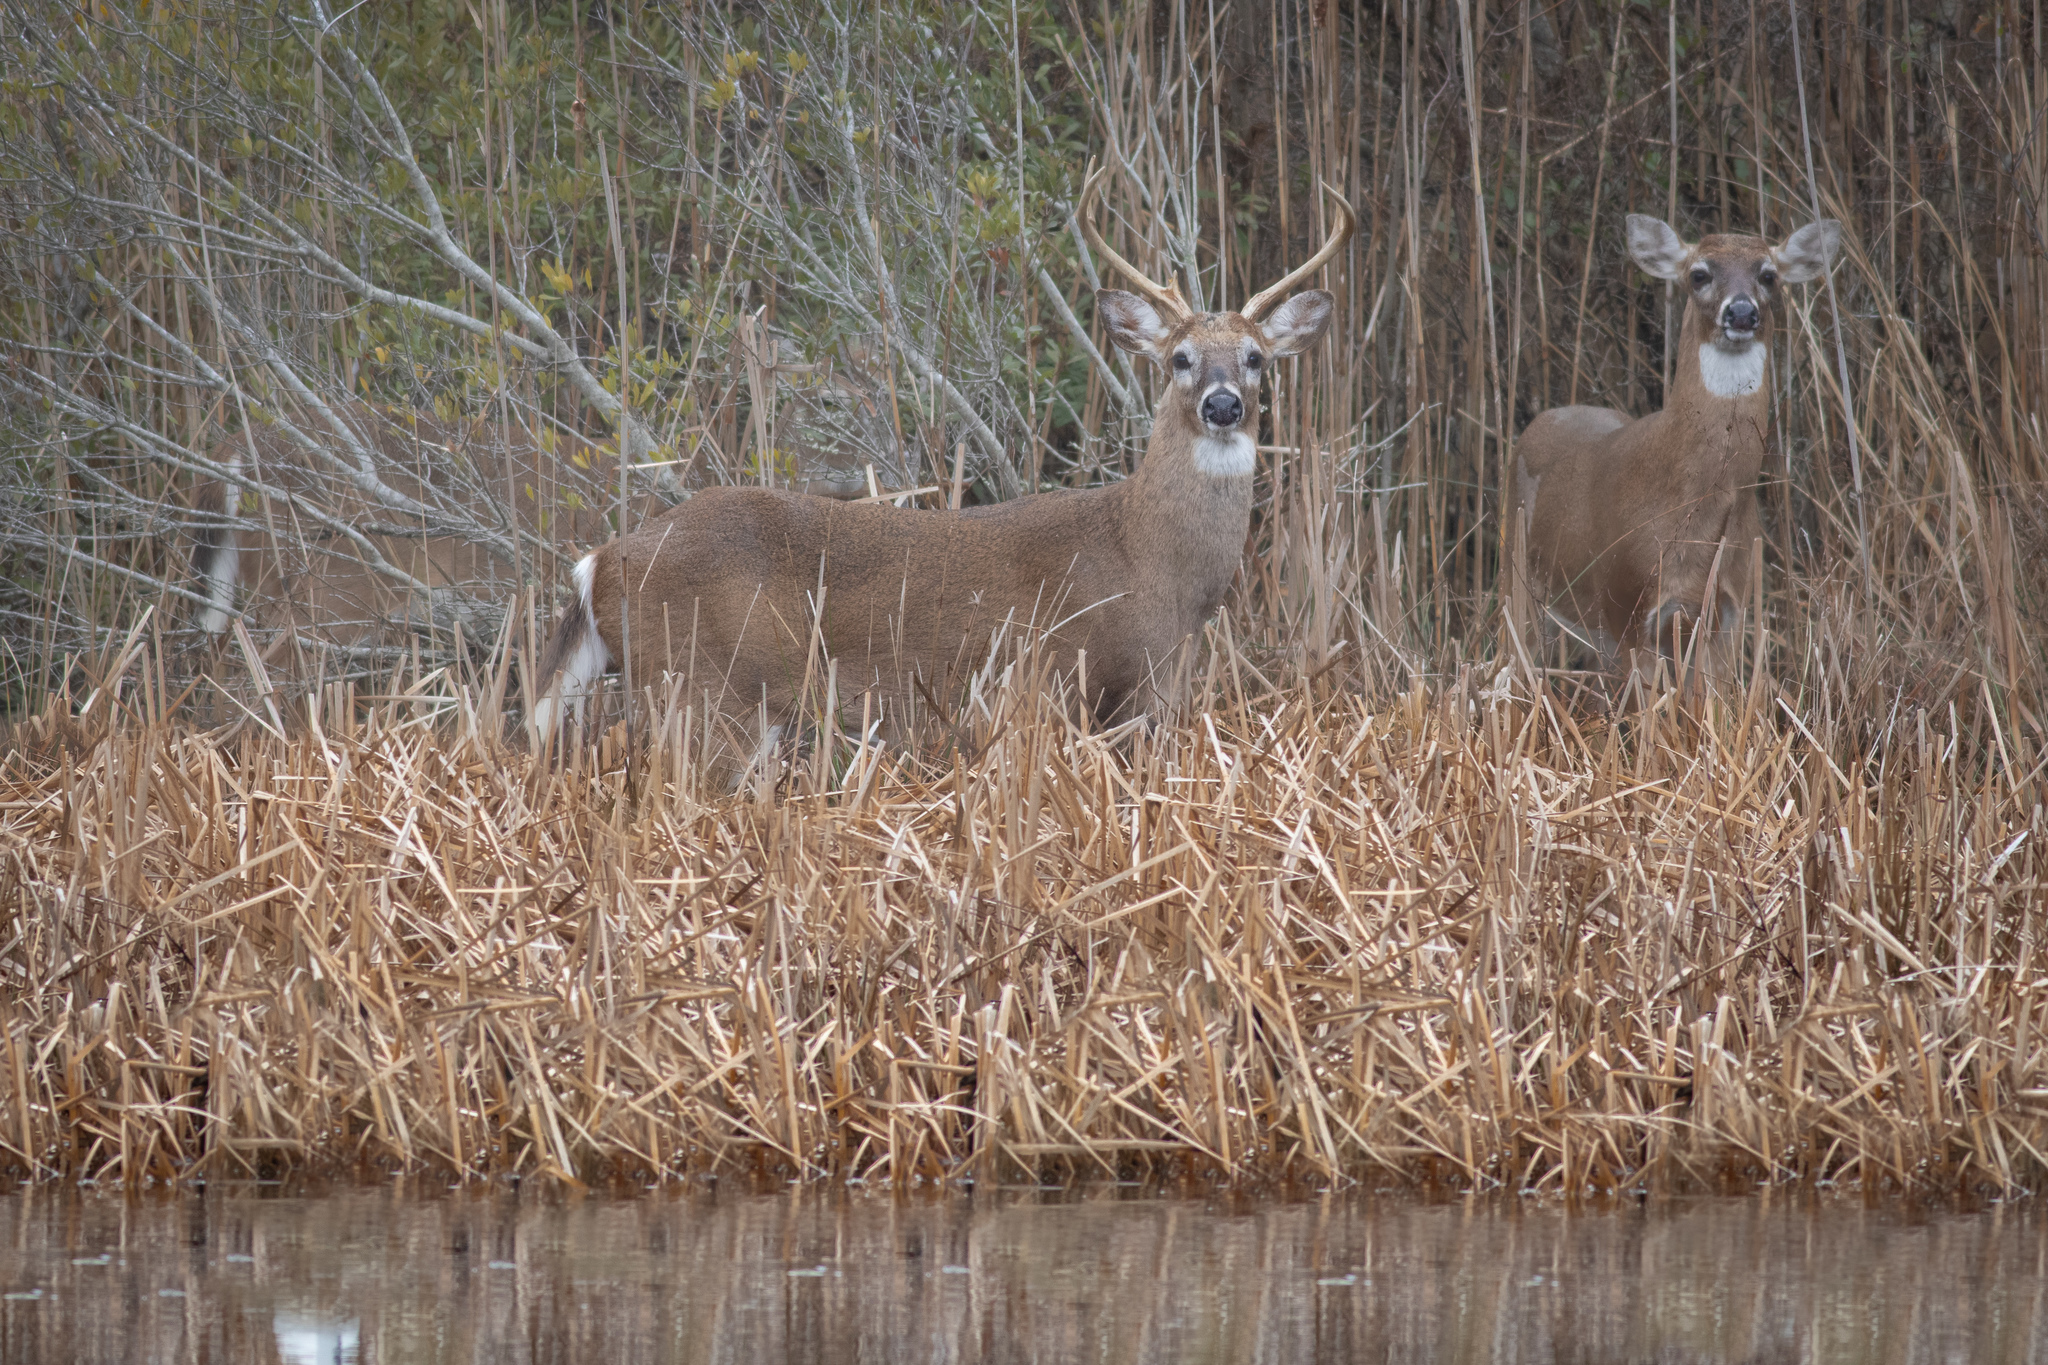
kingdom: Animalia
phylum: Chordata
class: Mammalia
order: Artiodactyla
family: Cervidae
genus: Odocoileus
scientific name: Odocoileus virginianus
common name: White-tailed deer
